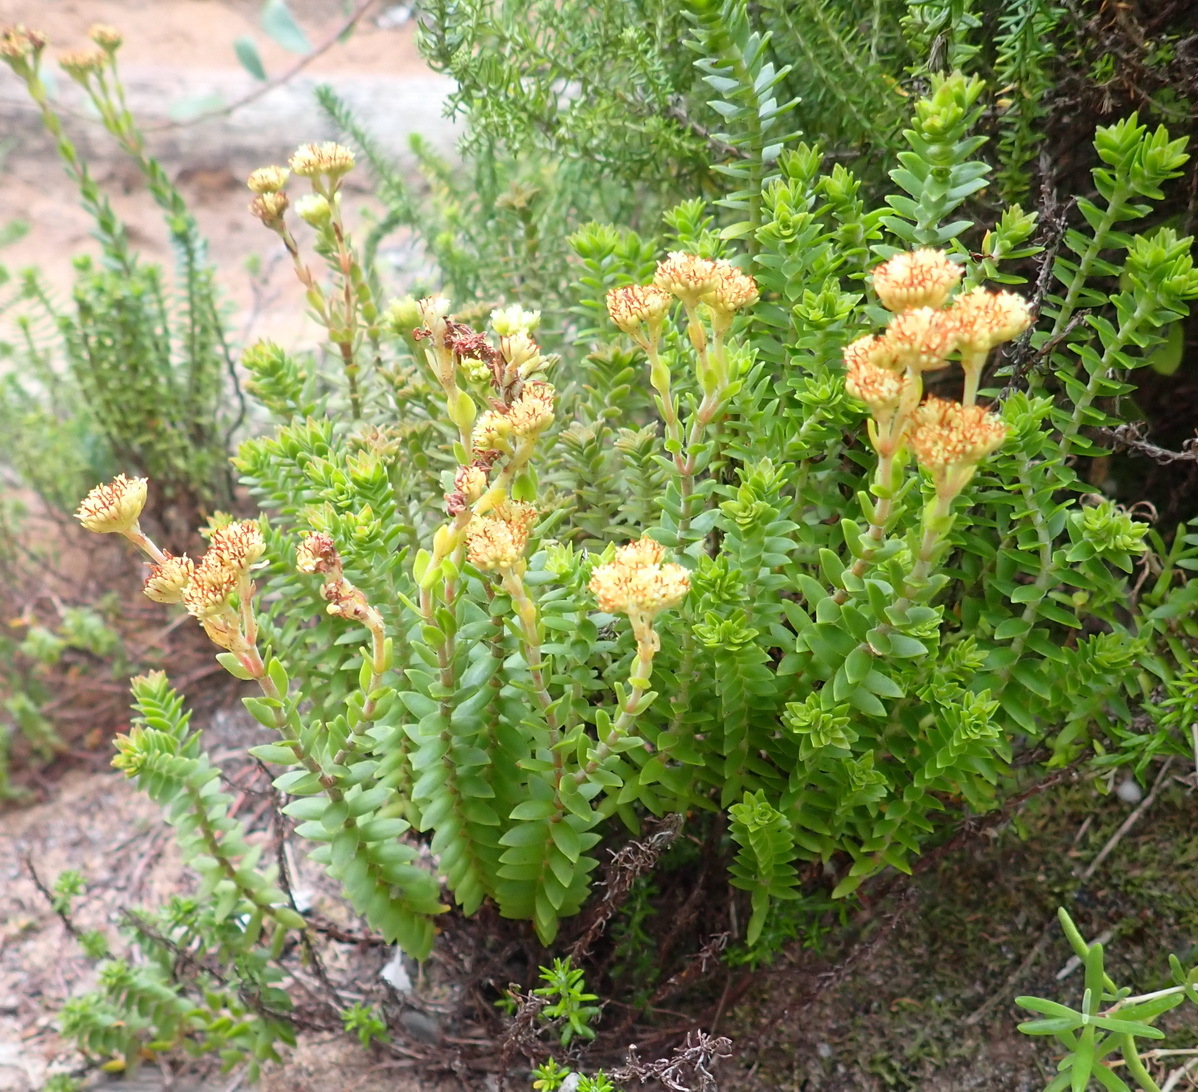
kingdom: Plantae
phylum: Tracheophyta
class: Magnoliopsida
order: Saxifragales
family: Crassulaceae
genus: Crassula
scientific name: Crassula subulata
